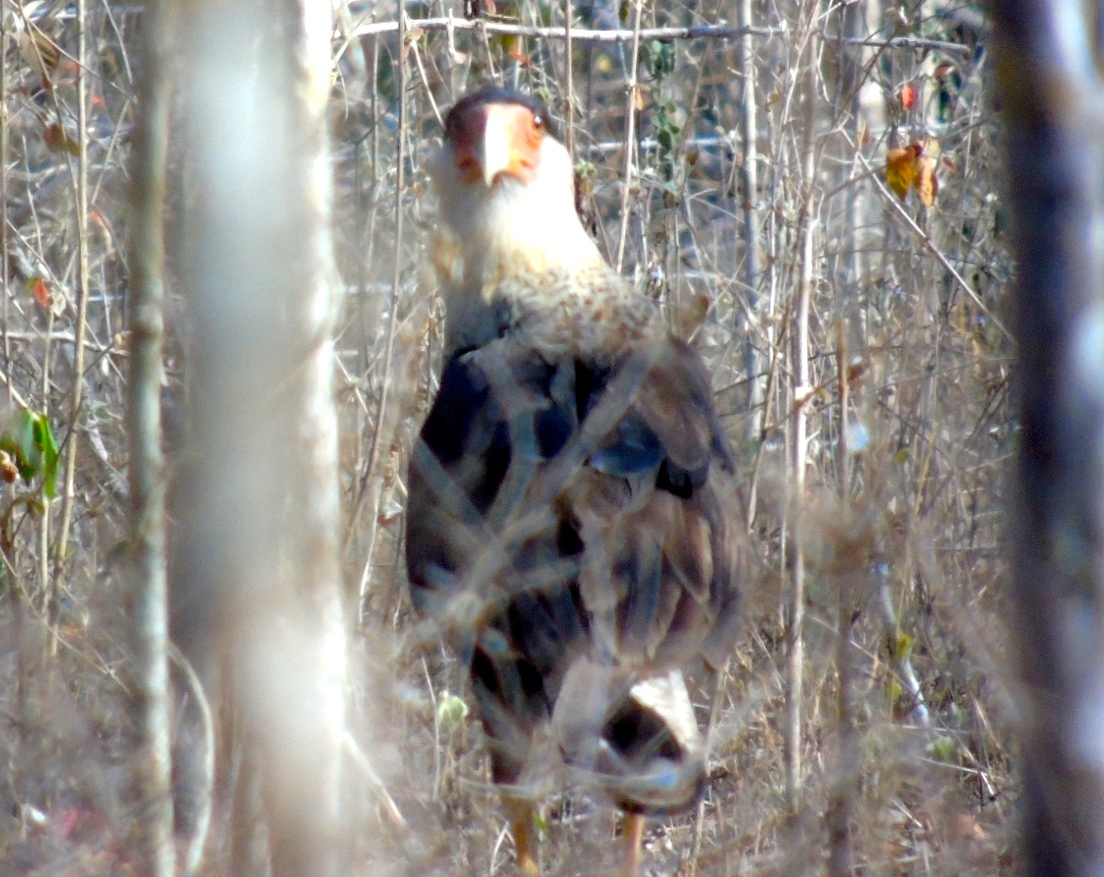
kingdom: Animalia
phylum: Chordata
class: Aves
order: Falconiformes
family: Falconidae
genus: Caracara
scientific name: Caracara plancus
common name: Southern caracara
